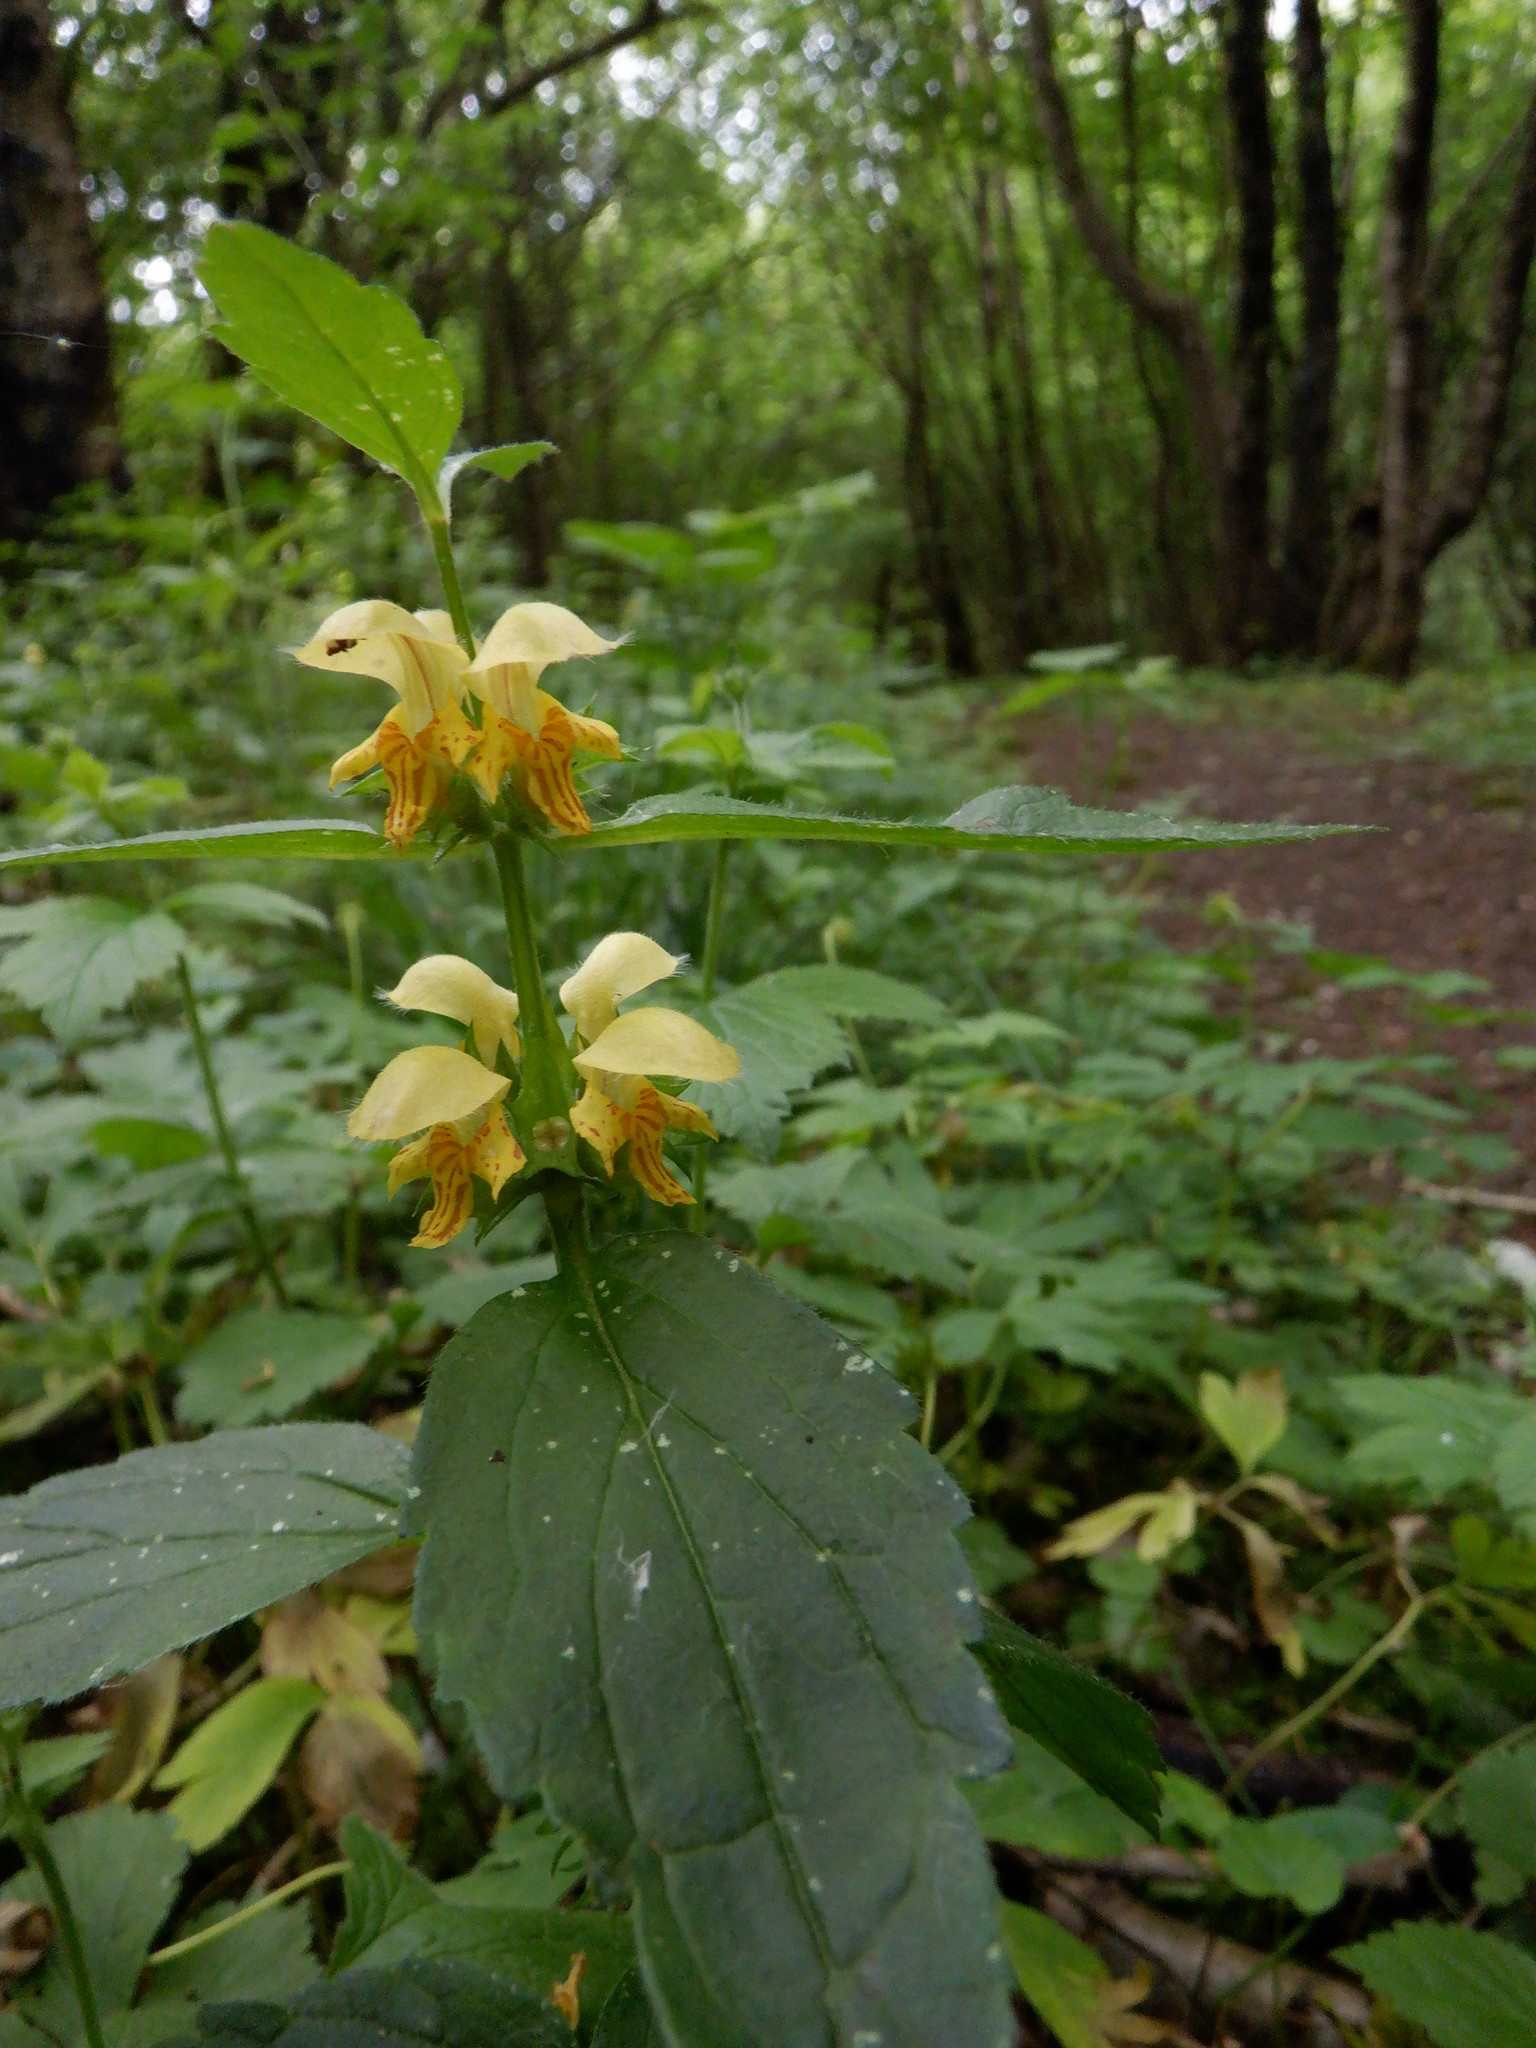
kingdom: Plantae
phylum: Tracheophyta
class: Magnoliopsida
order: Lamiales
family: Lamiaceae
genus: Lamium
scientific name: Lamium galeobdolon
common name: Yellow archangel
